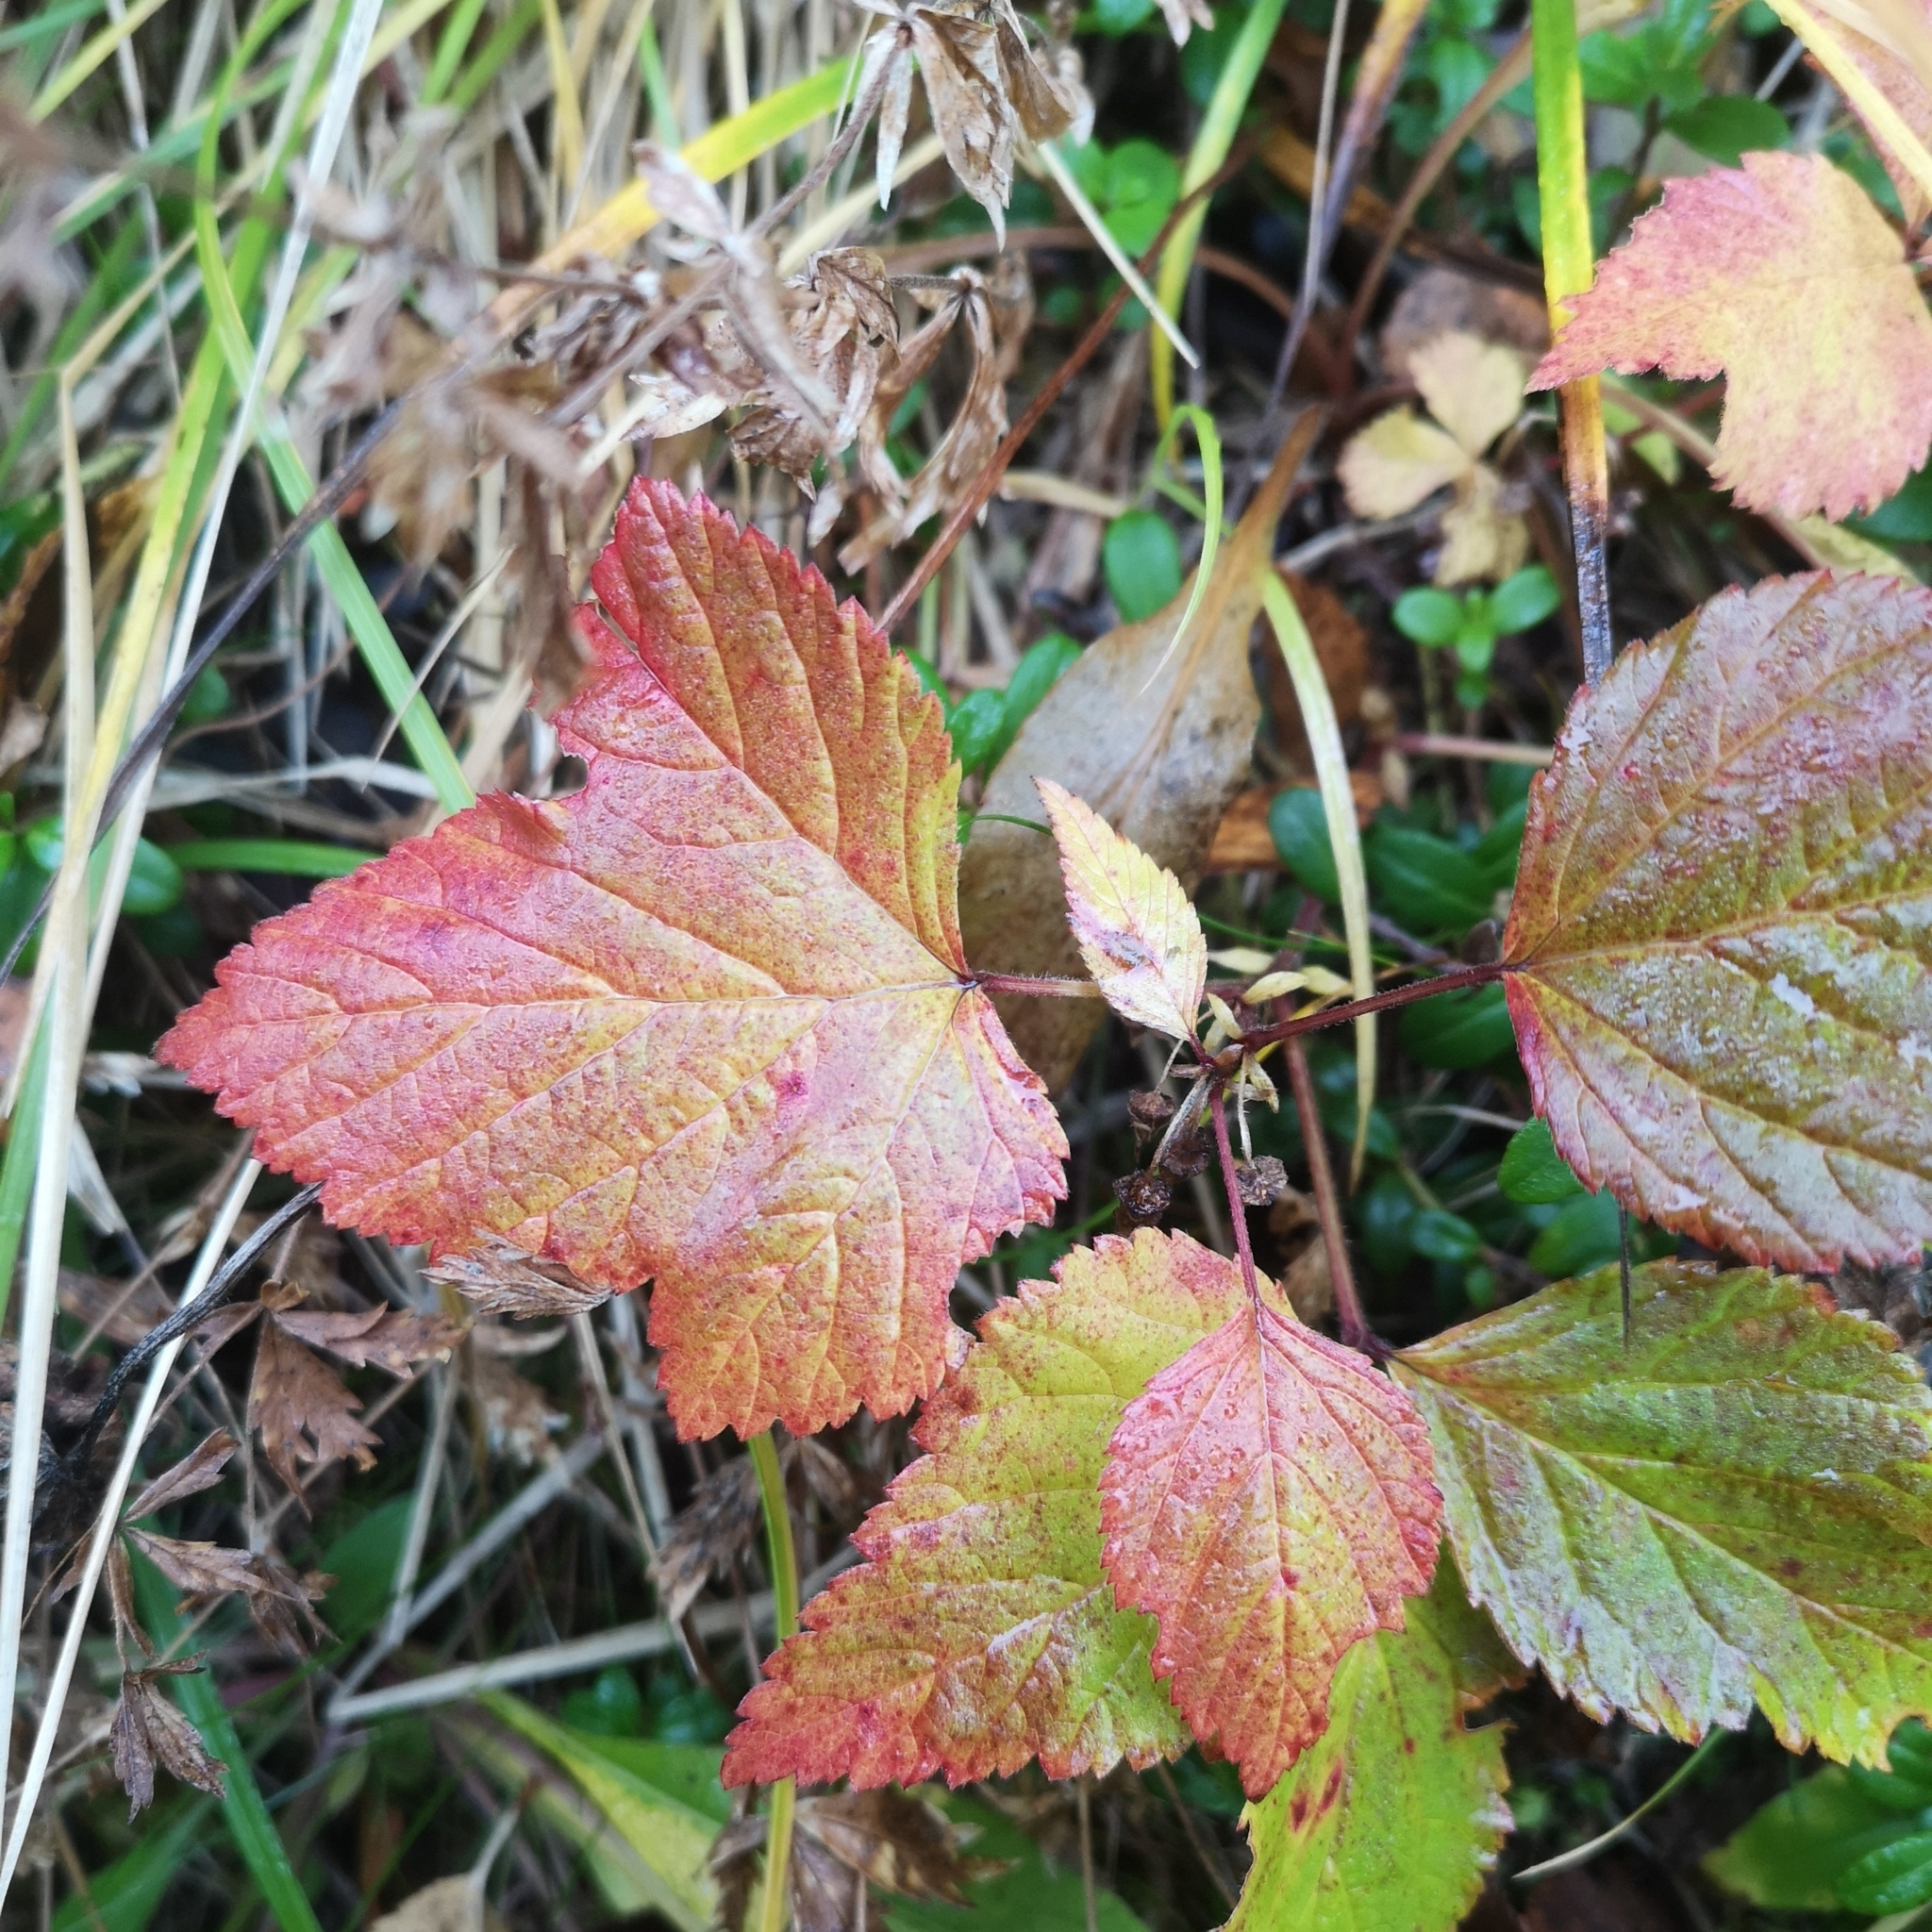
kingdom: Plantae
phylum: Tracheophyta
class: Magnoliopsida
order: Rosales
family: Rosaceae
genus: Rubus
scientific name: Rubus saxatilis
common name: Stone bramble
